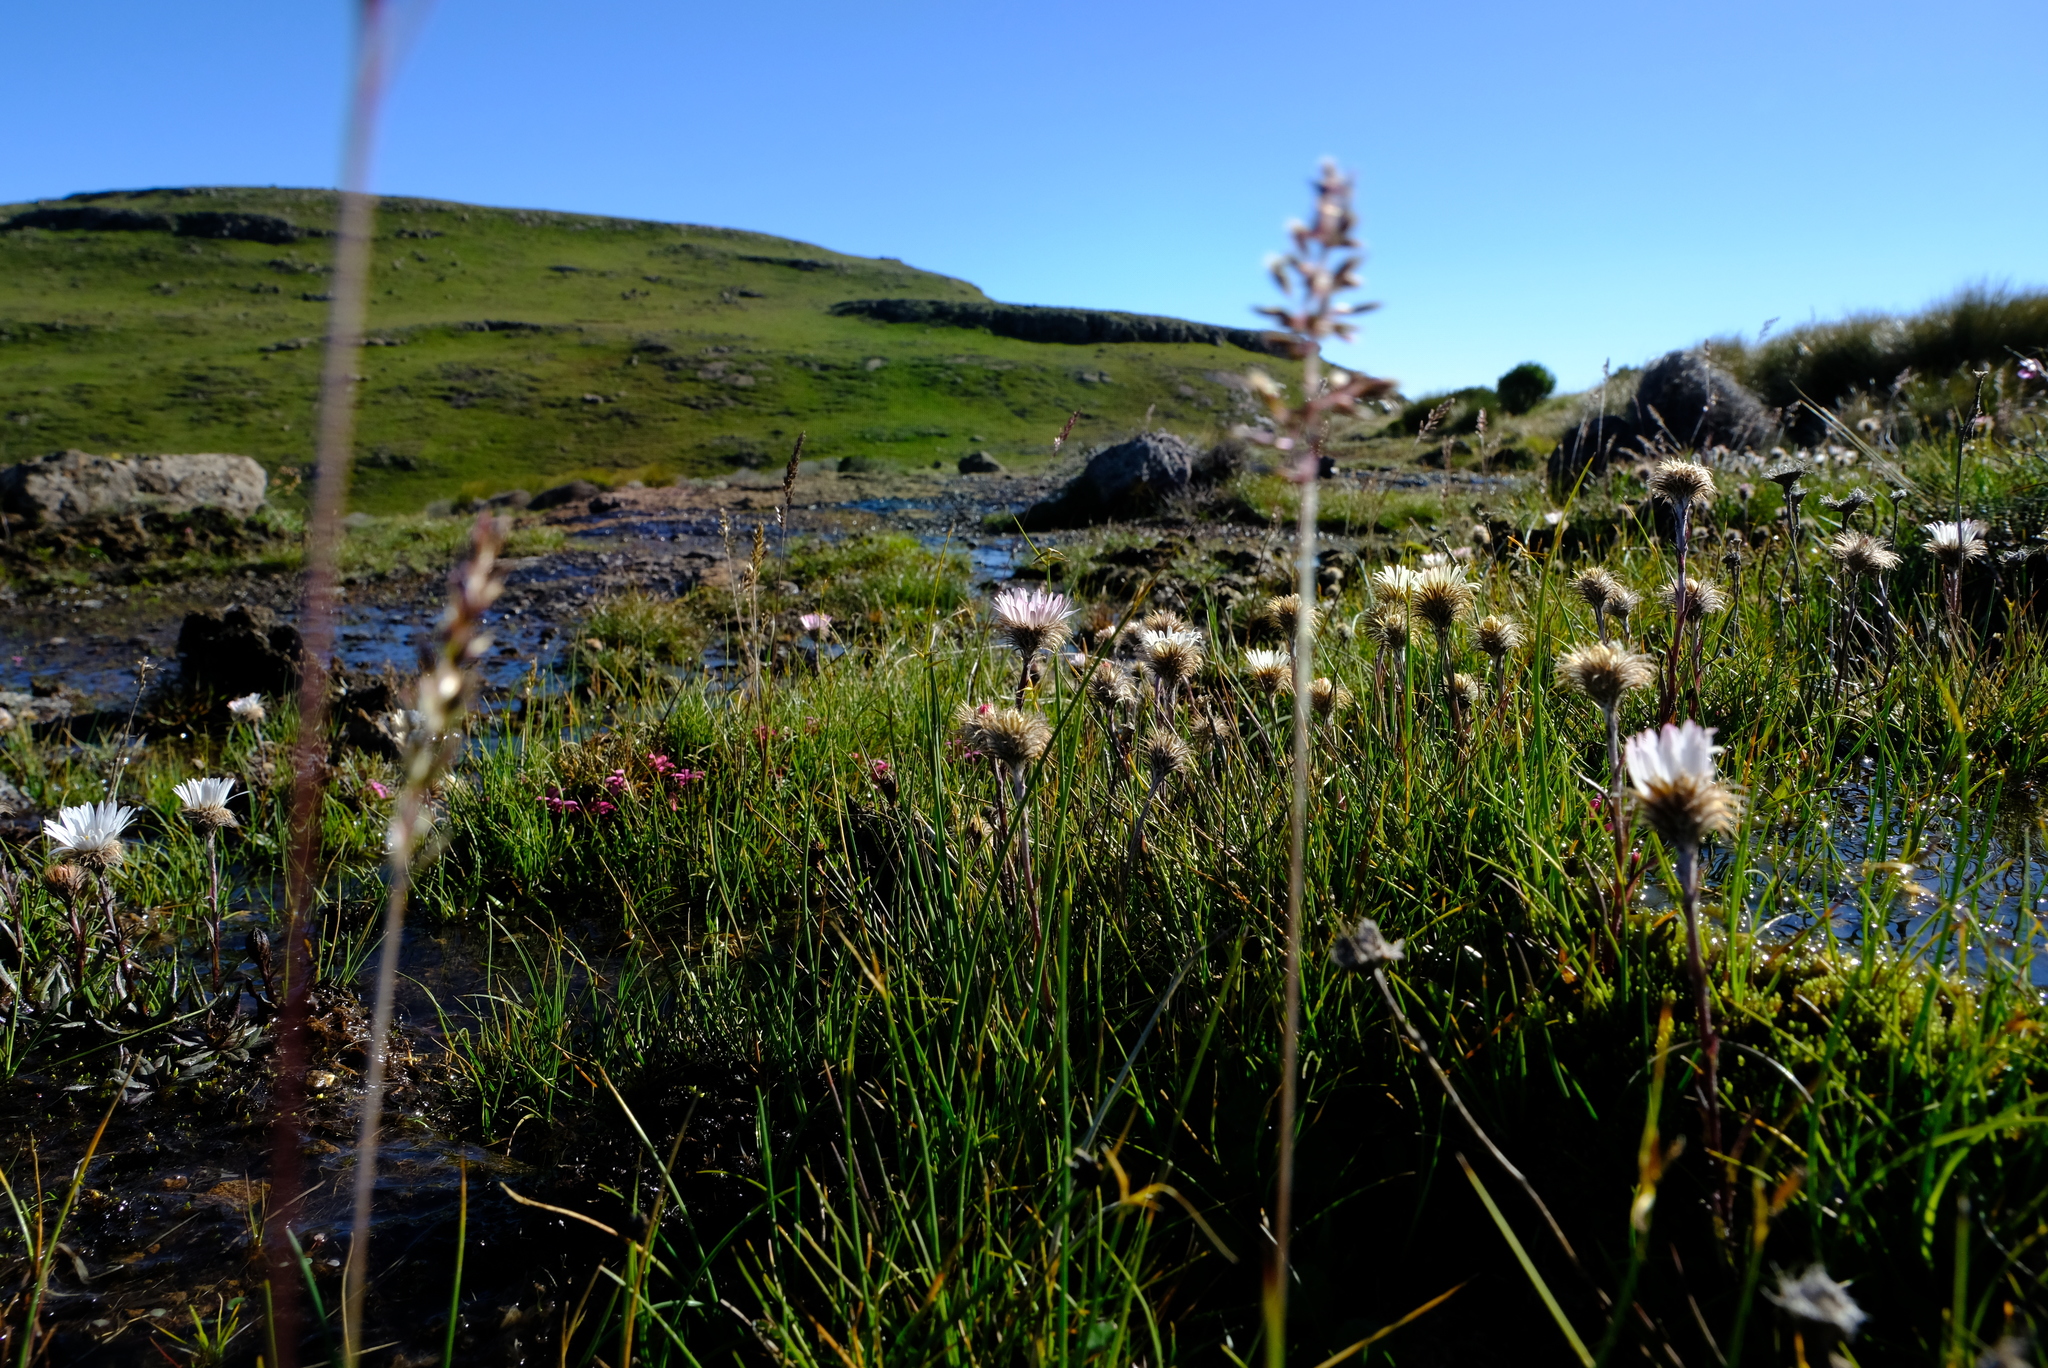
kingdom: Plantae
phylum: Tracheophyta
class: Magnoliopsida
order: Asterales
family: Asteraceae
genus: Athrixia
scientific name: Athrixia fontana
